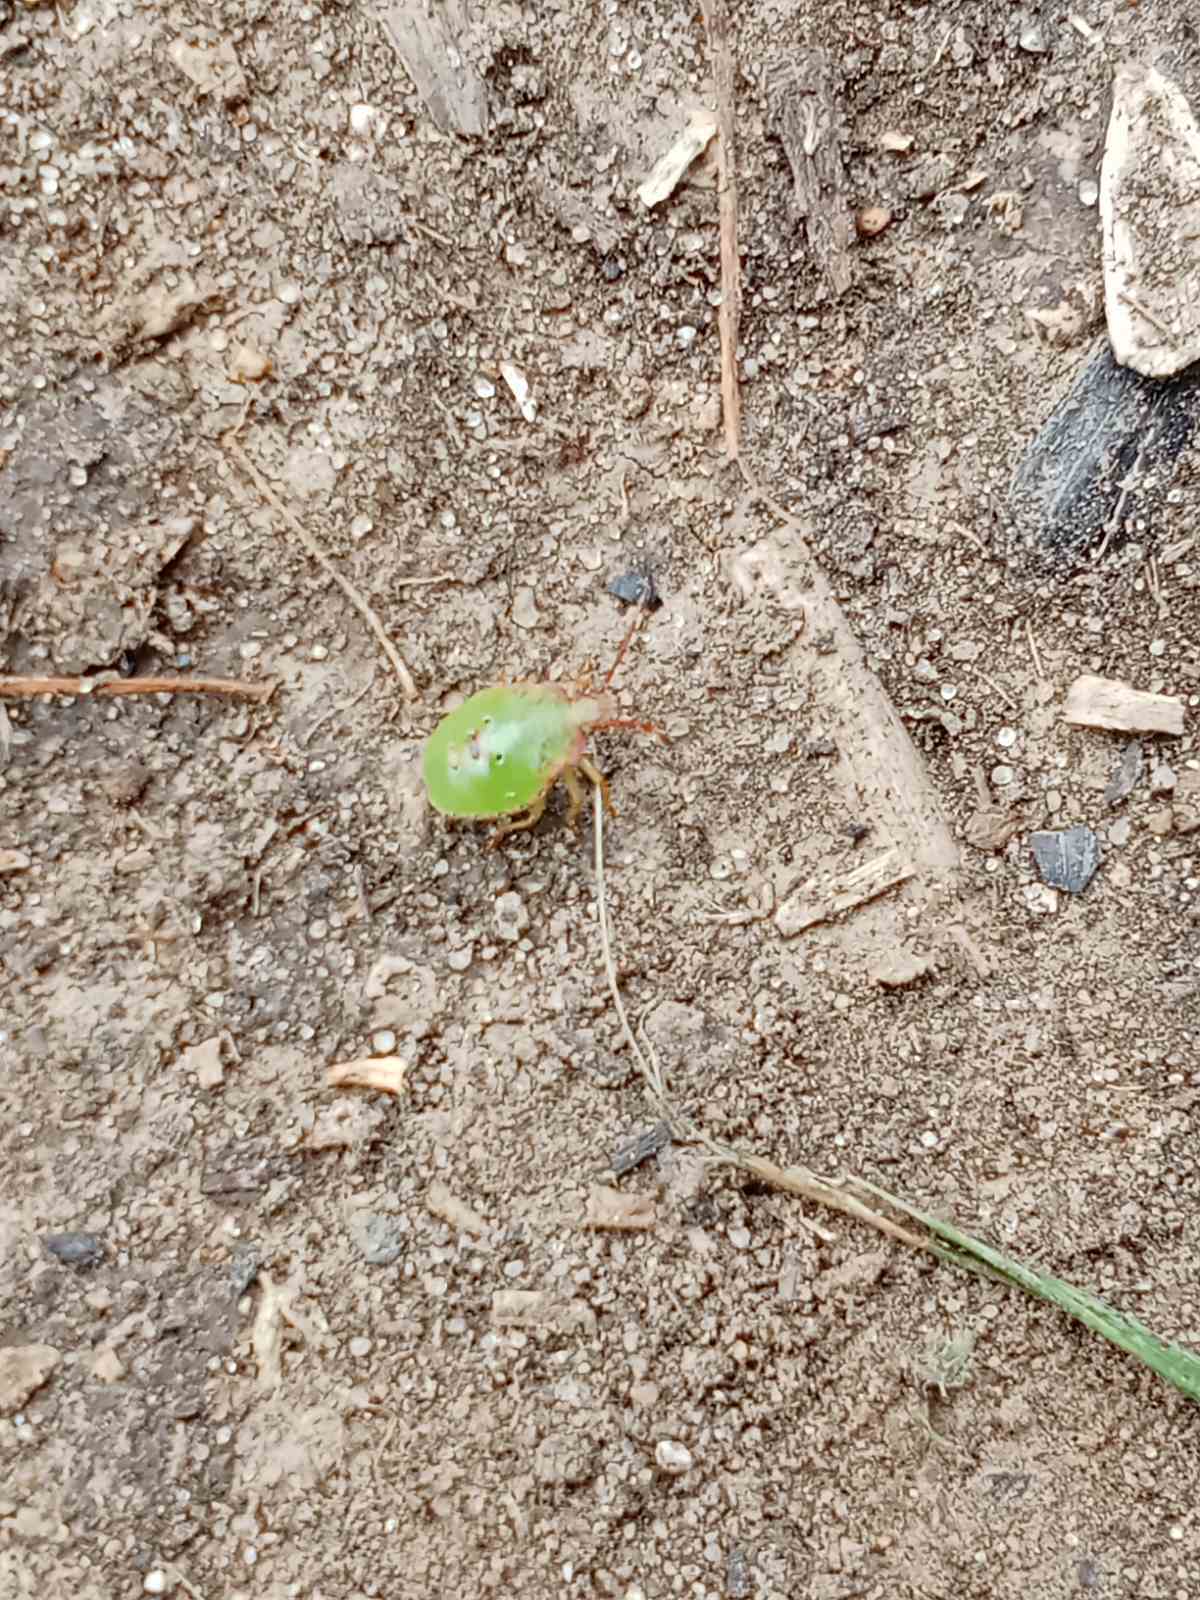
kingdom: Animalia
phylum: Arthropoda
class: Insecta
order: Hemiptera
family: Acanthosomatidae
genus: Acanthosoma
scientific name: Acanthosoma haemorrhoidale
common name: Hawthorn shieldbug
